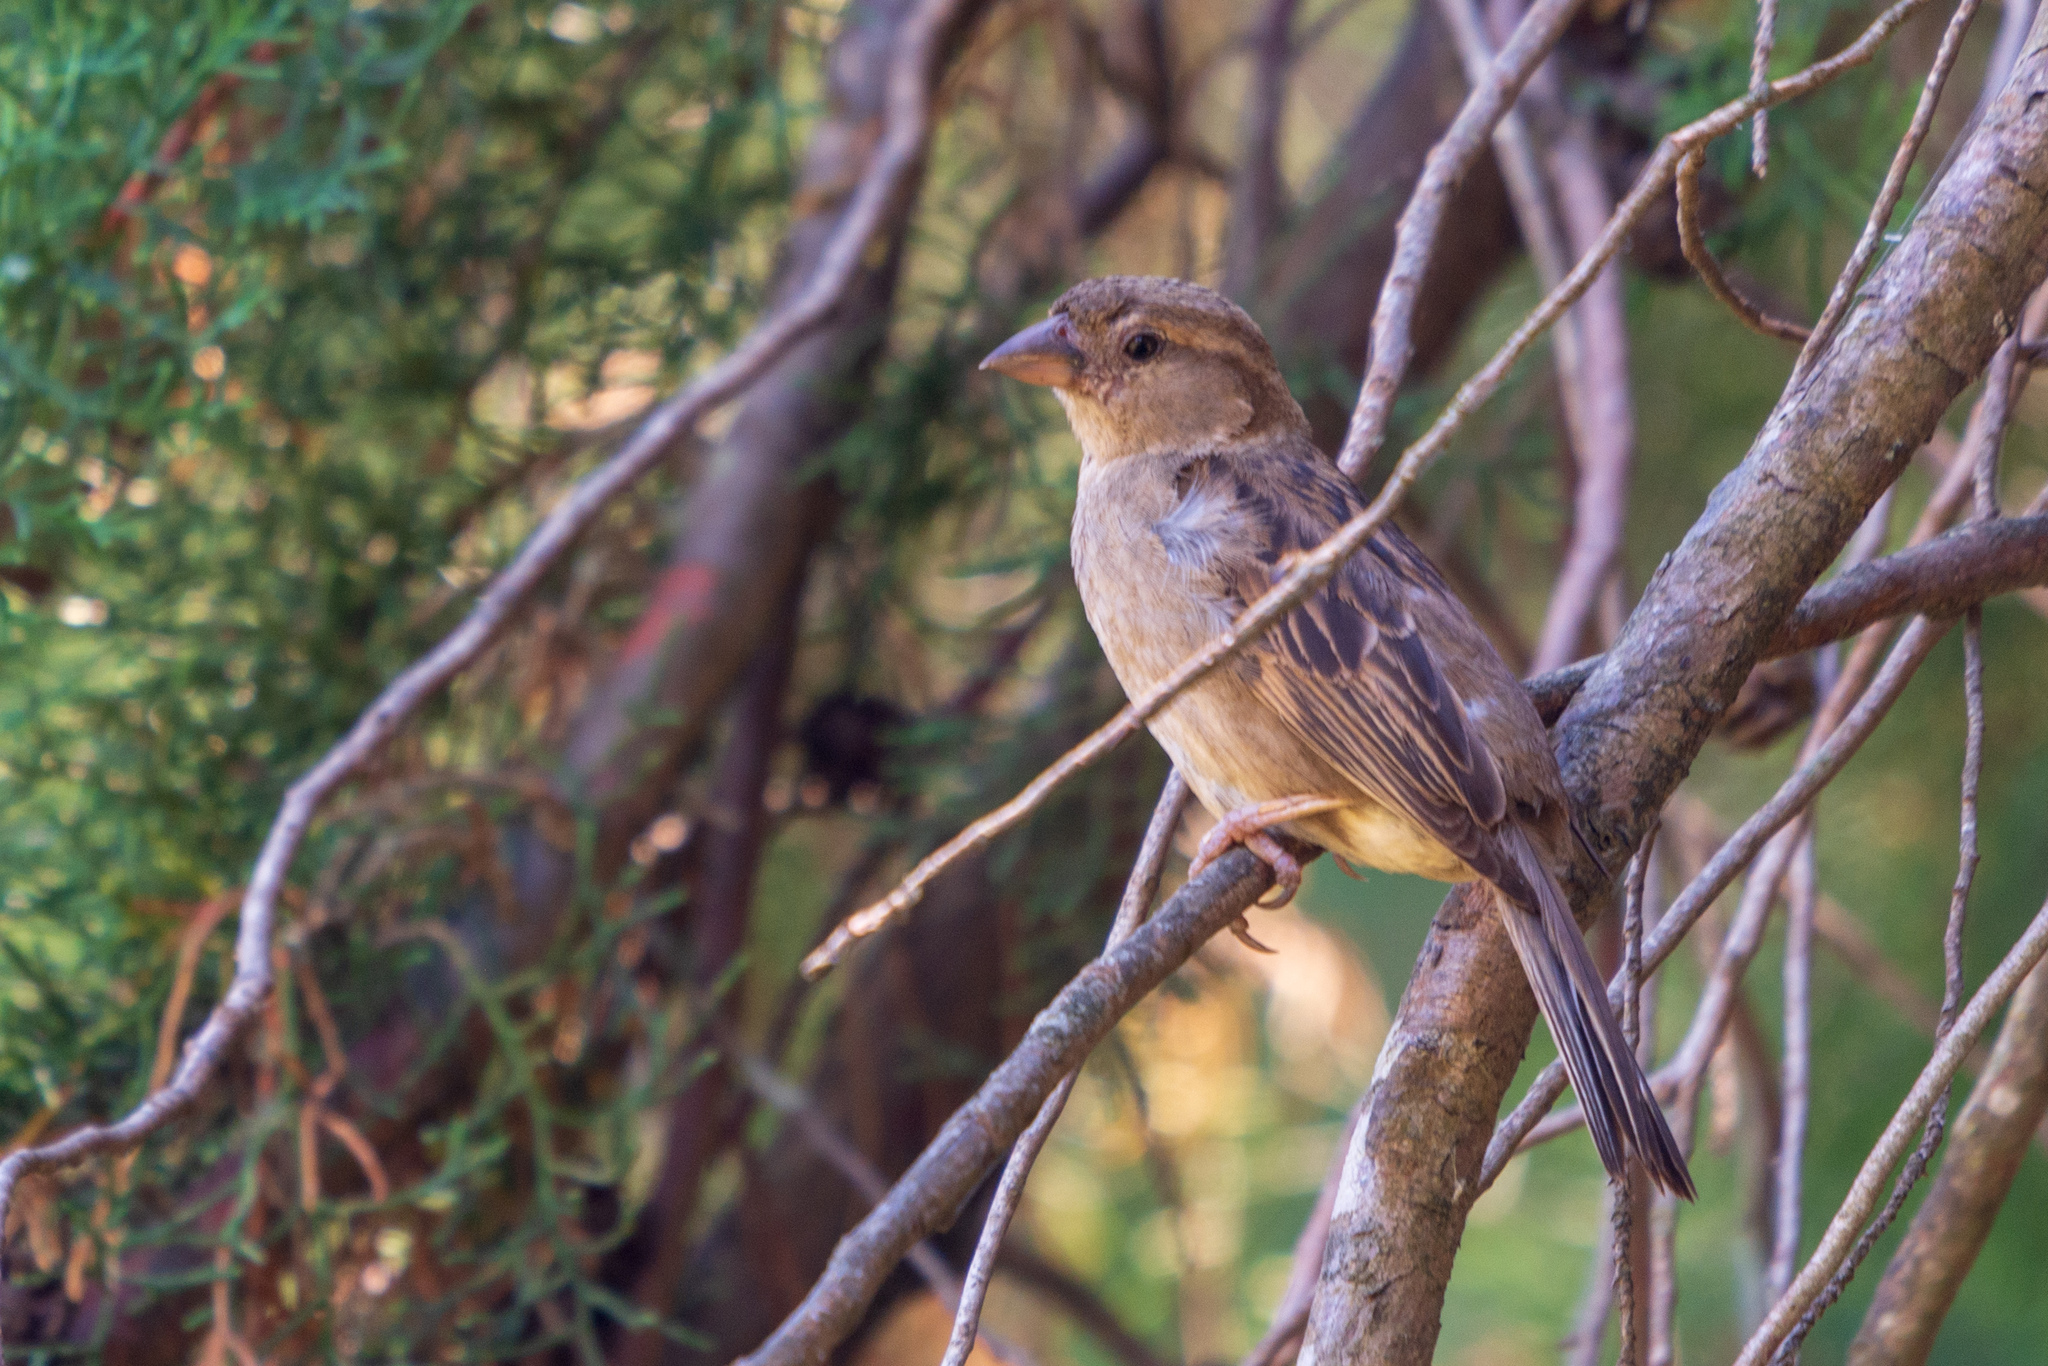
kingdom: Animalia
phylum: Chordata
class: Aves
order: Passeriformes
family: Passeridae
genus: Passer
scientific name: Passer domesticus
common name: House sparrow
